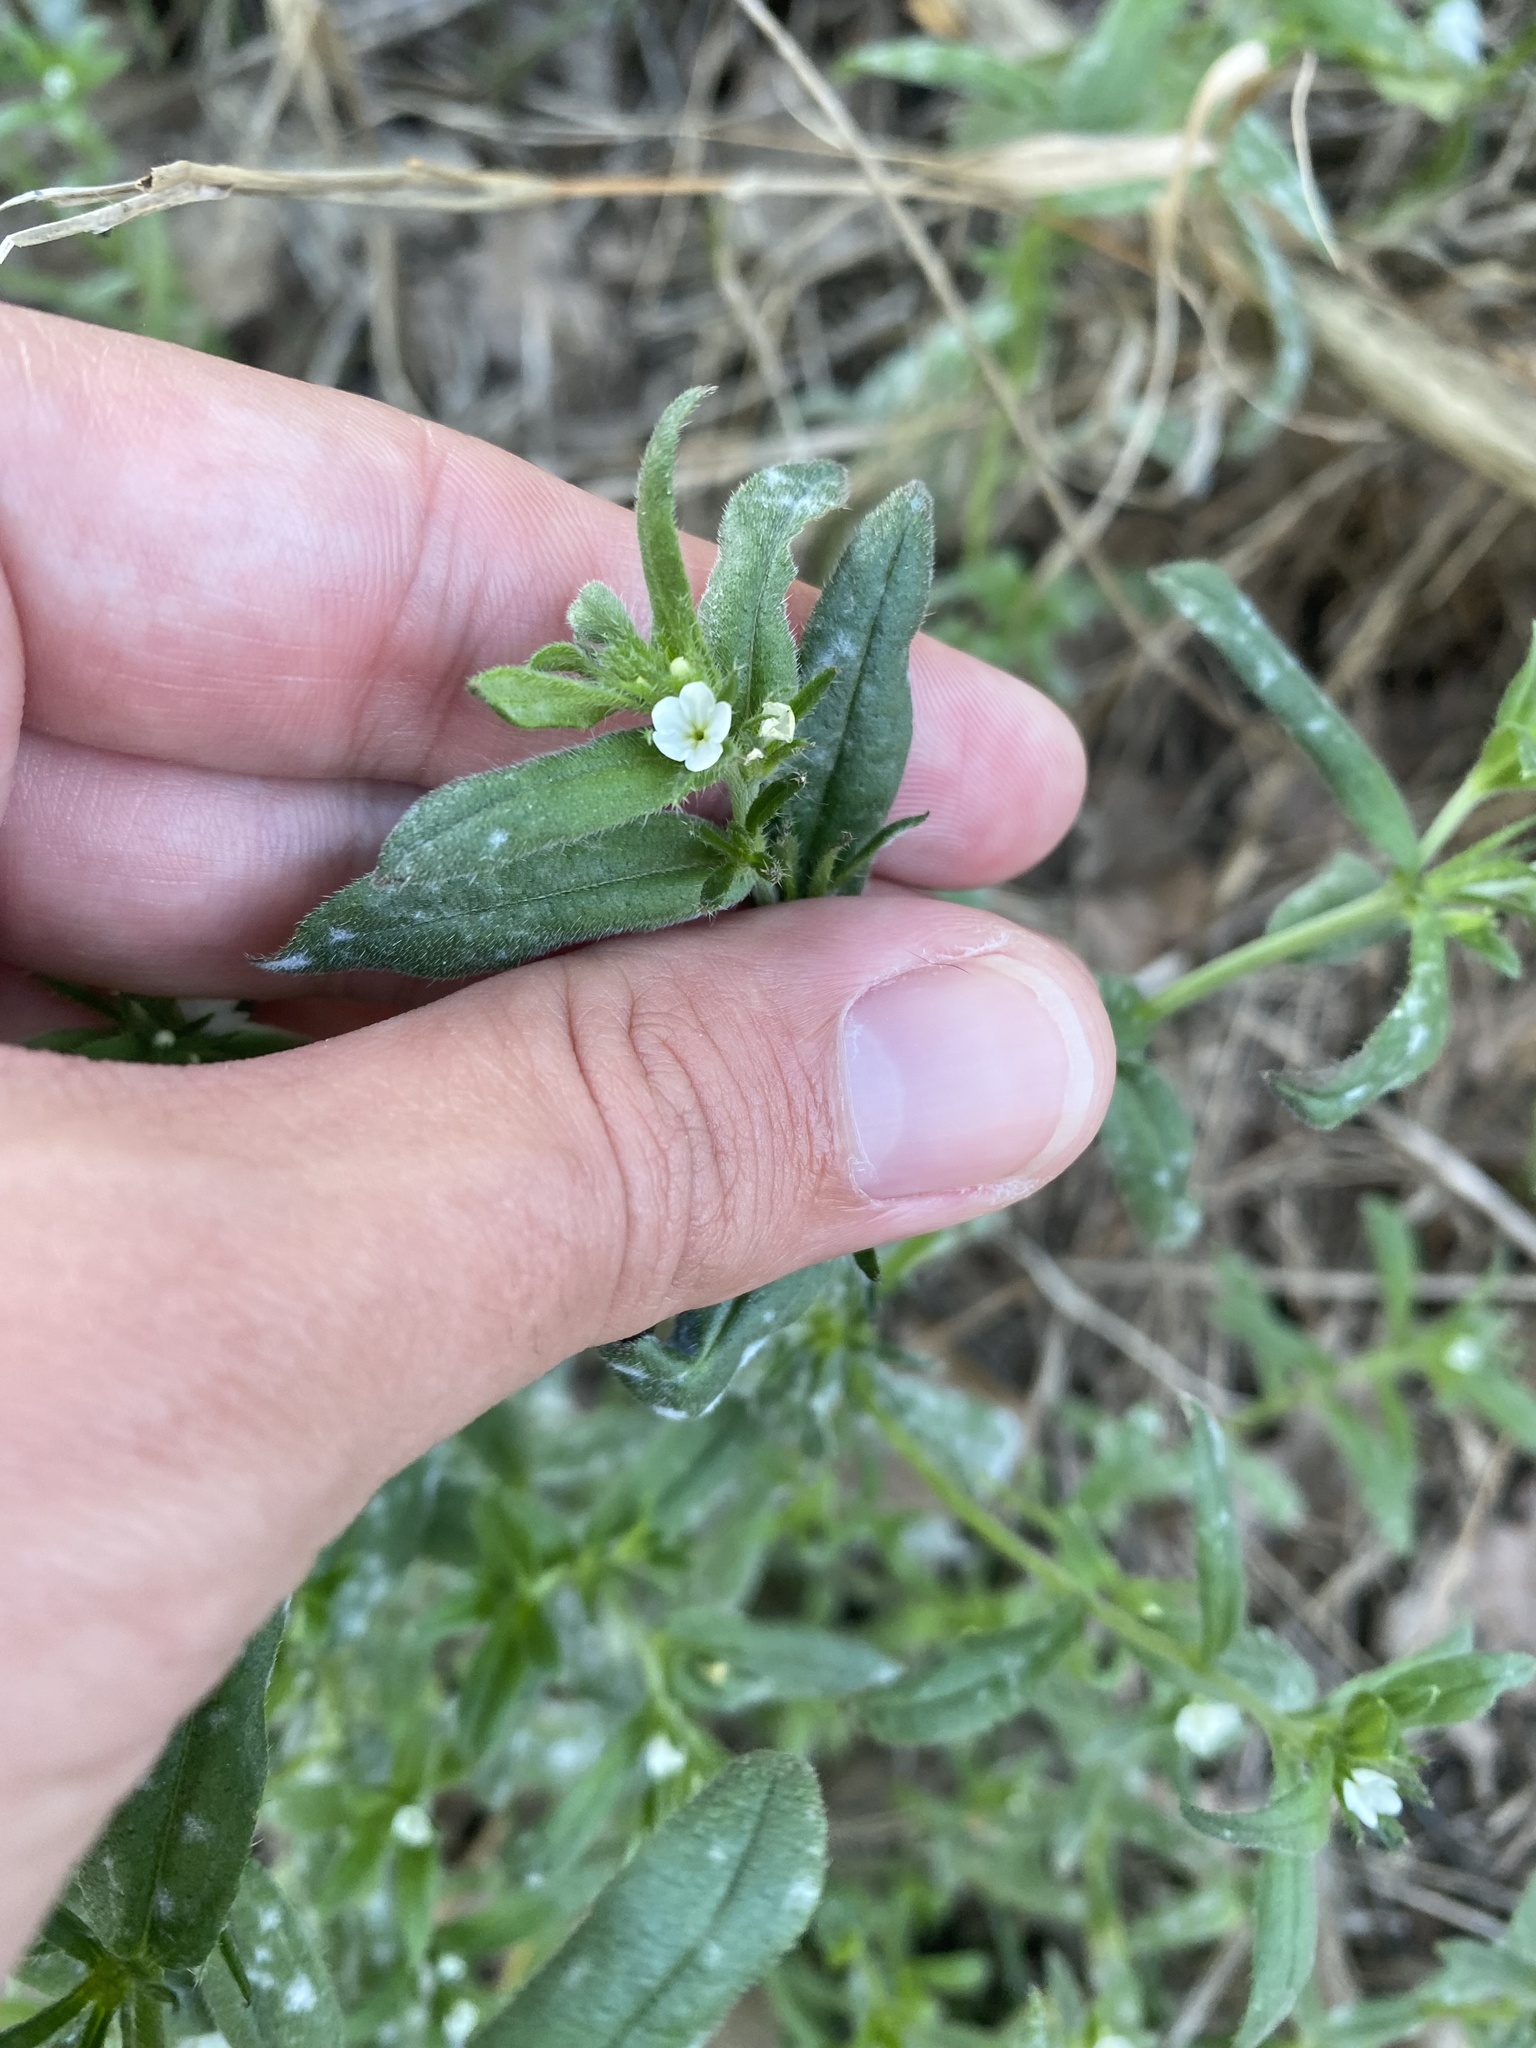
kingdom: Plantae
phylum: Tracheophyta
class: Magnoliopsida
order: Boraginales
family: Boraginaceae
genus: Buglossoides
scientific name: Buglossoides arvensis
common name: Corn gromwell
